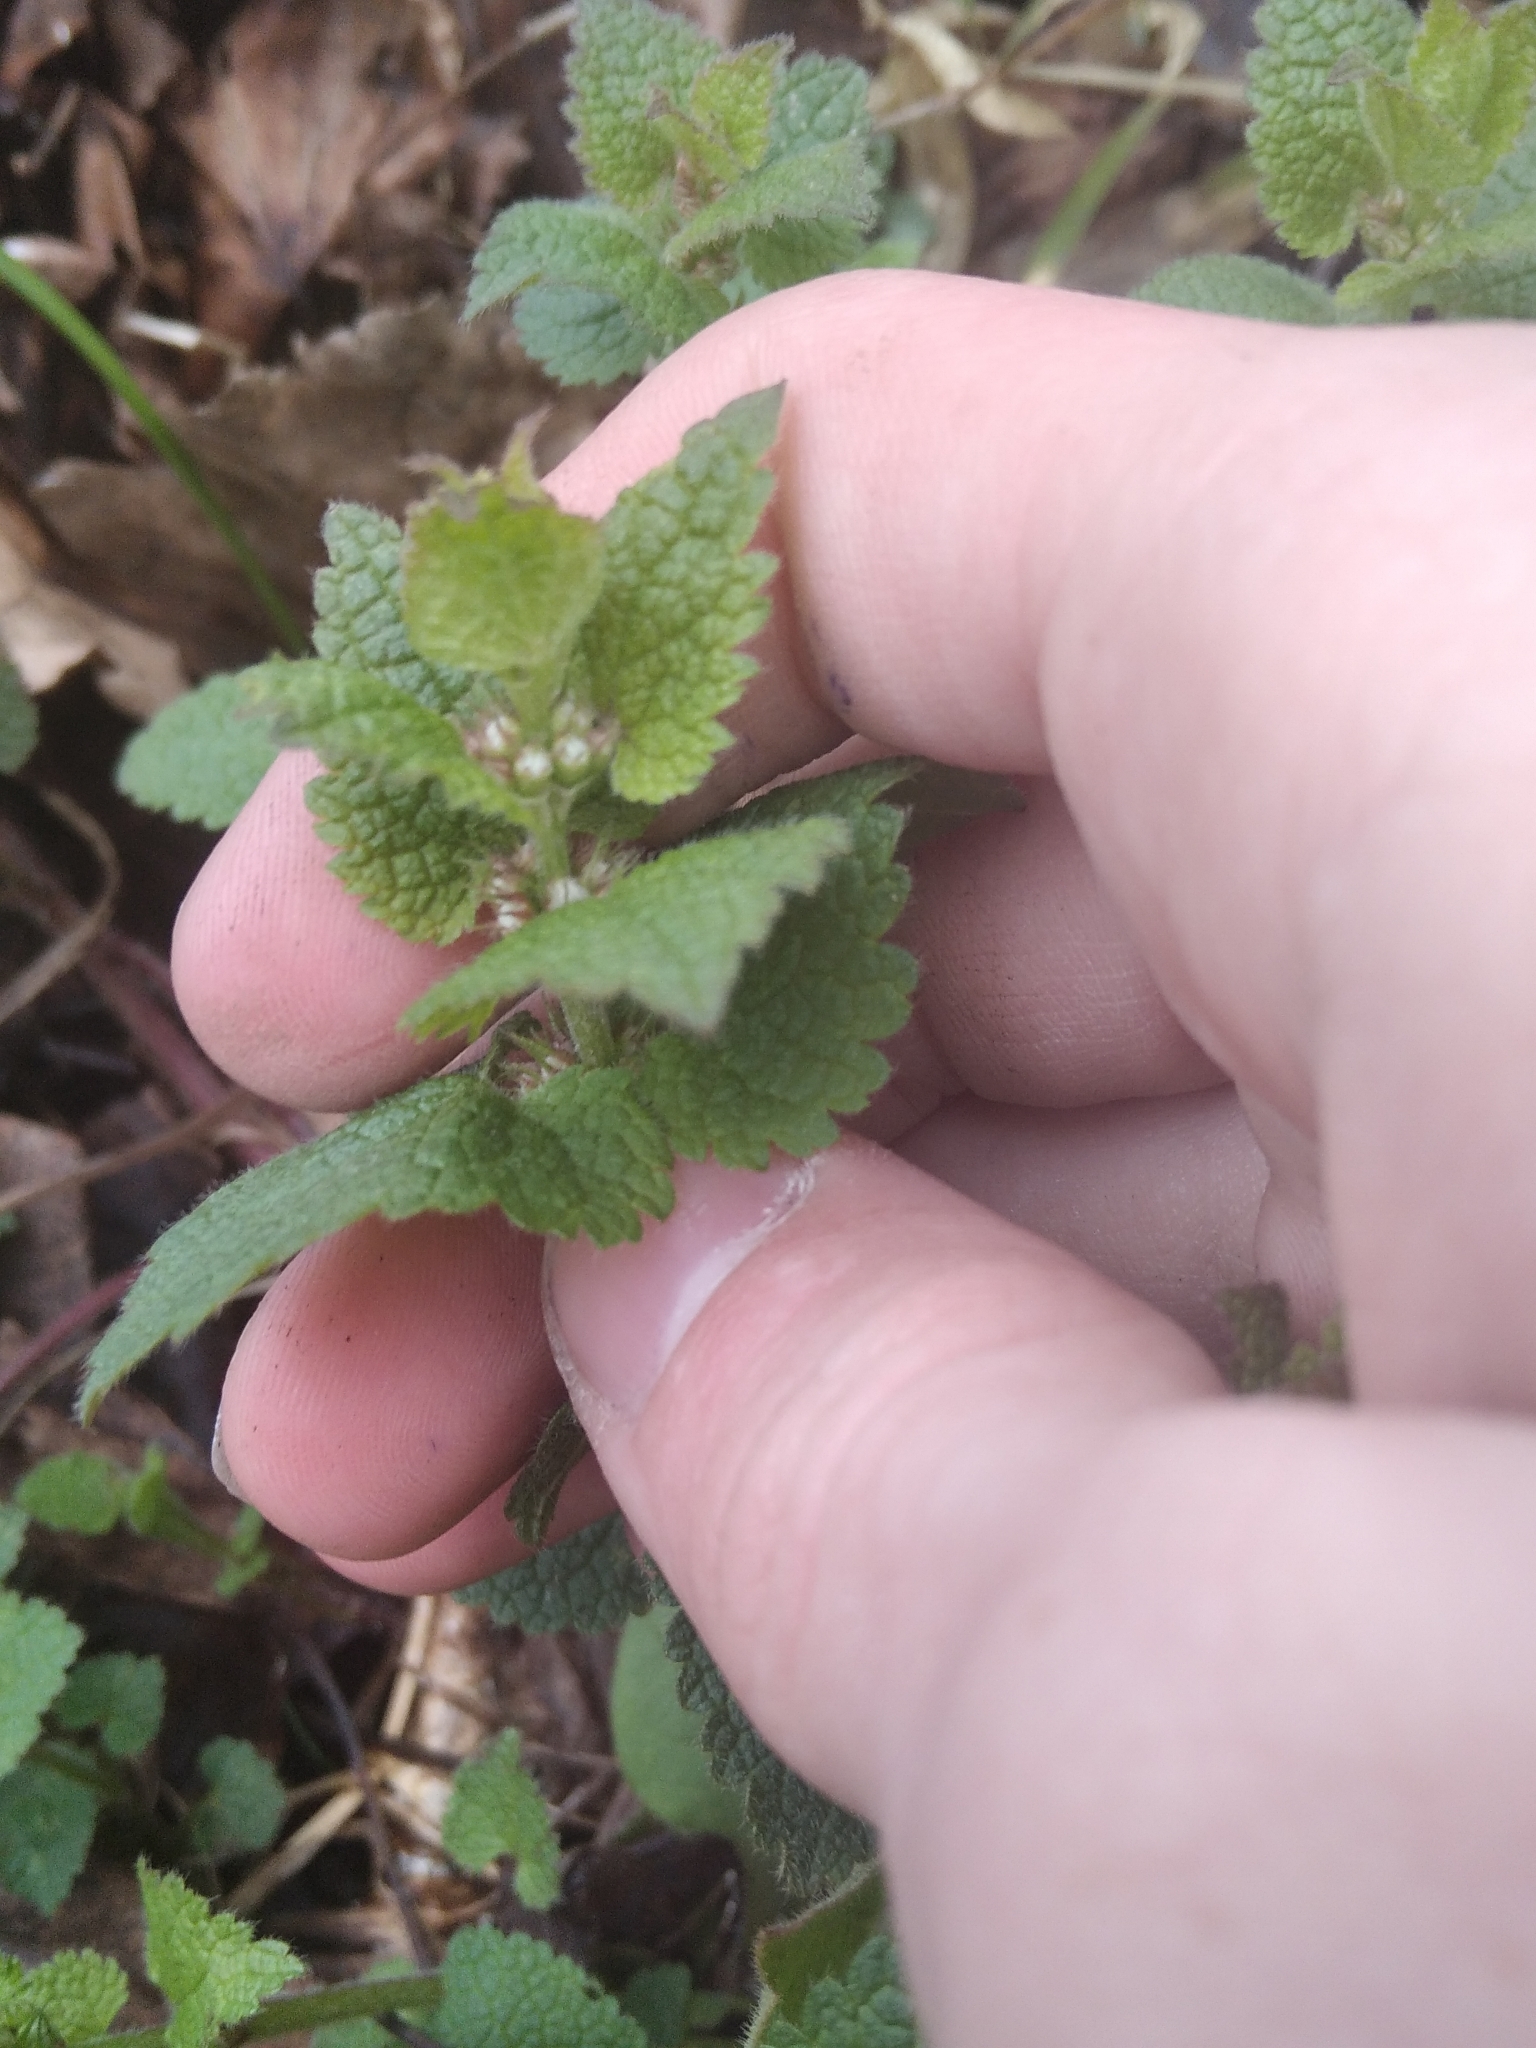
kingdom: Plantae
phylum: Tracheophyta
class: Magnoliopsida
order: Lamiales
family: Lamiaceae
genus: Lamium
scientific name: Lamium album
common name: White dead-nettle
